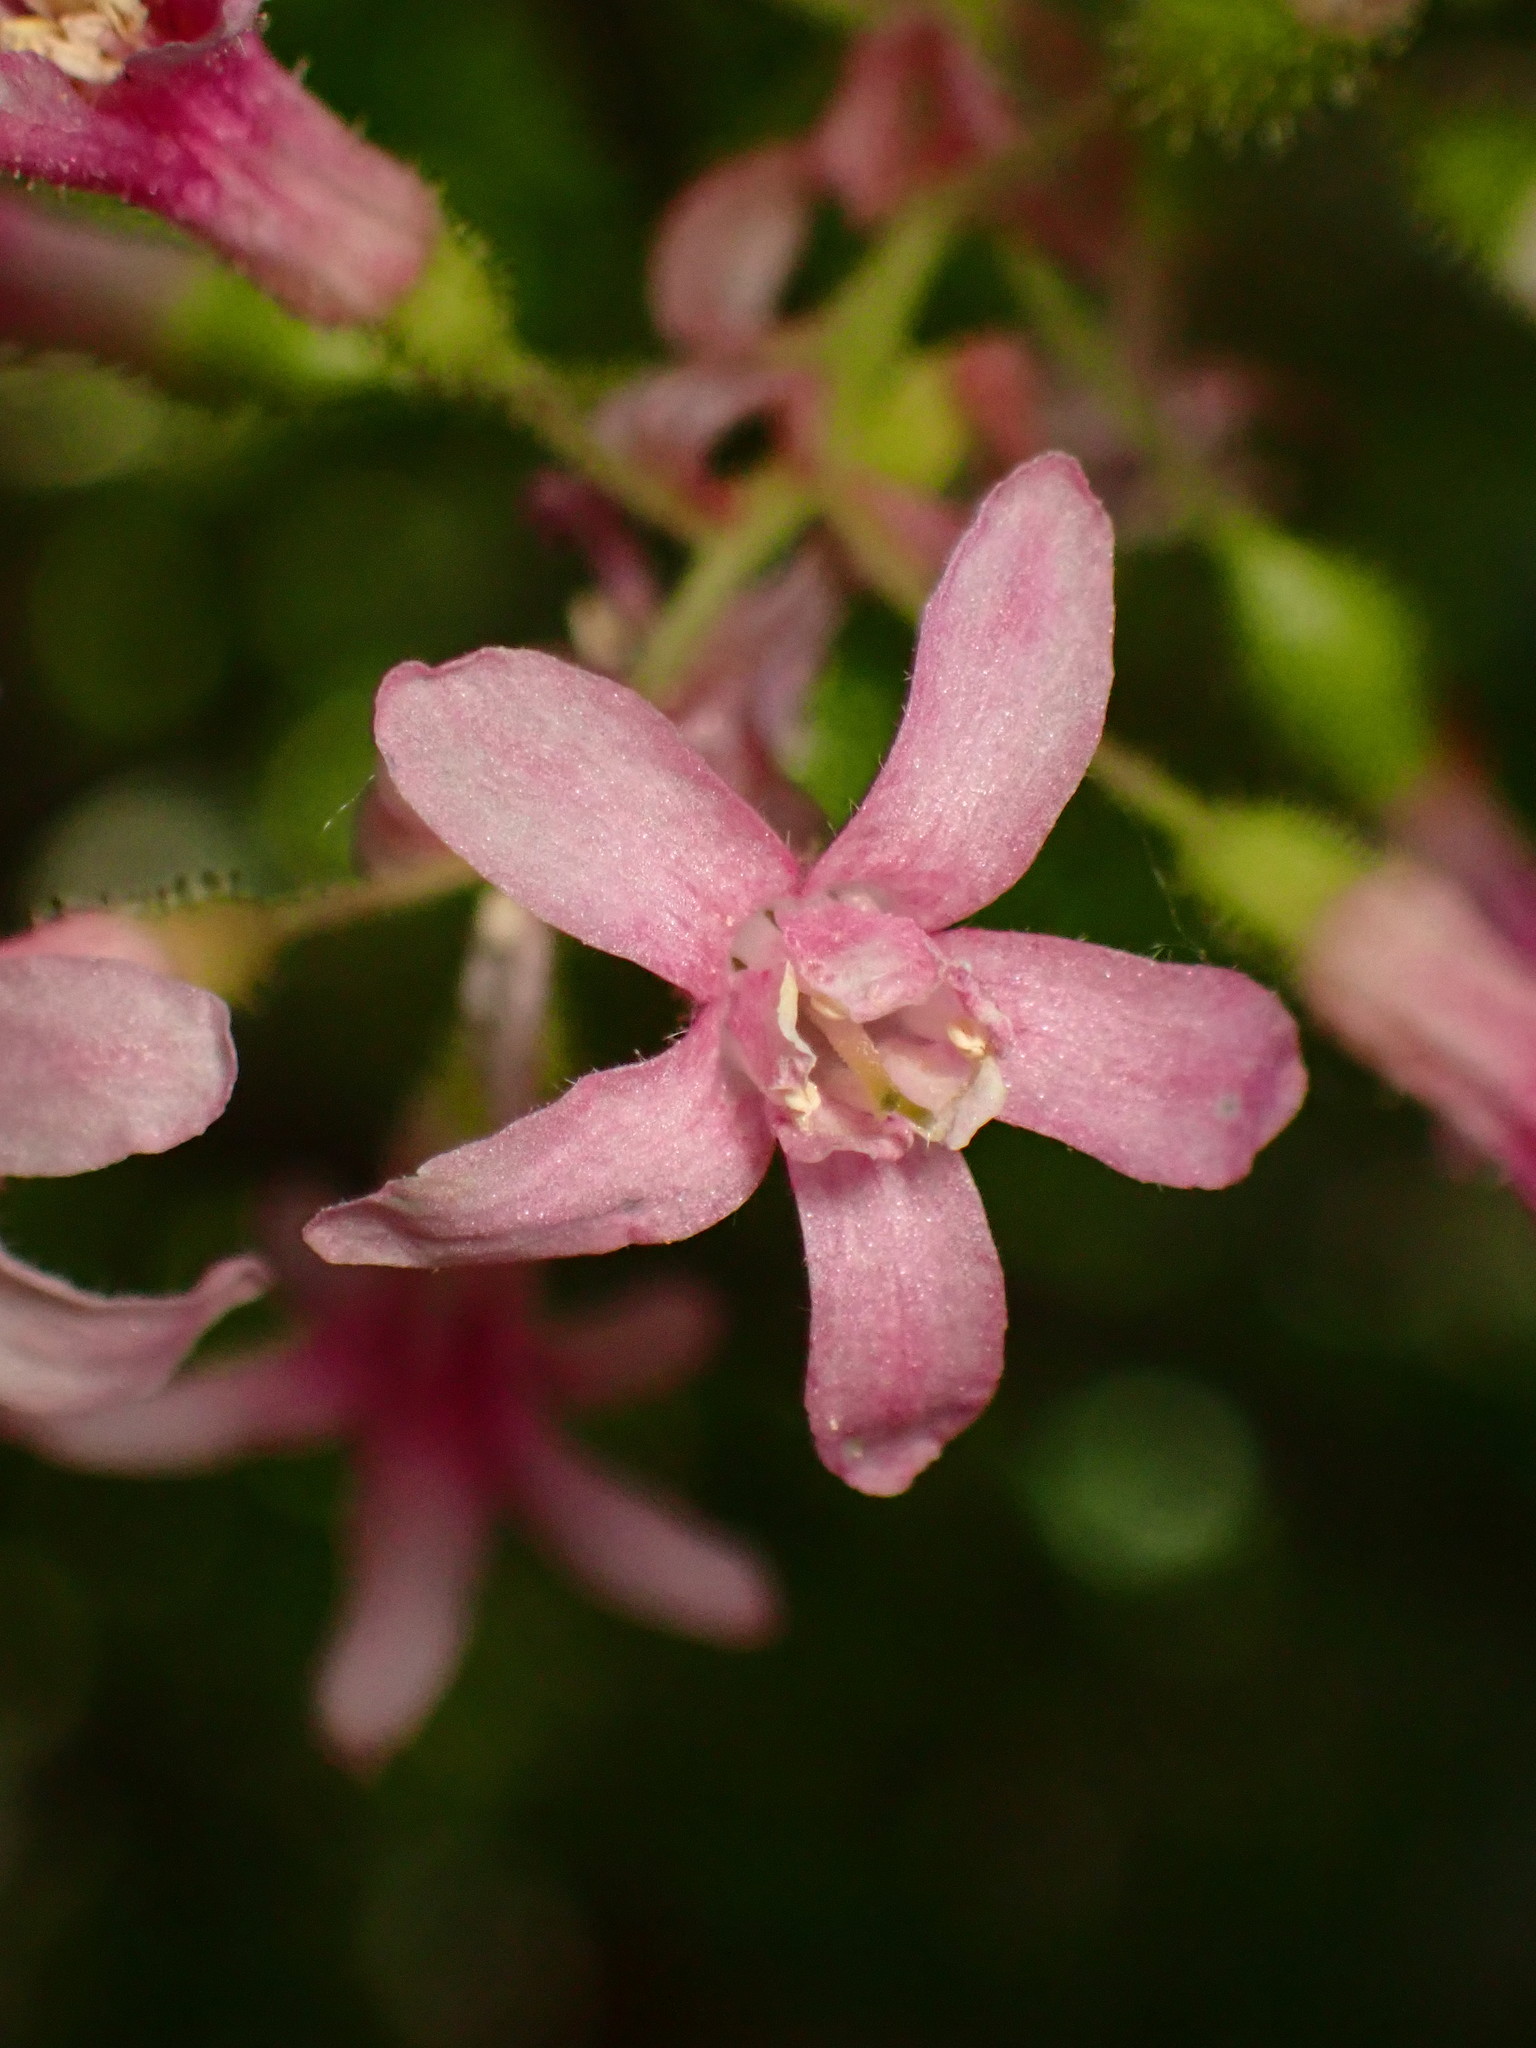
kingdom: Plantae
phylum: Tracheophyta
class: Magnoliopsida
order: Saxifragales
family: Grossulariaceae
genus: Ribes
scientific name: Ribes sanguineum
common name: Flowering currant
